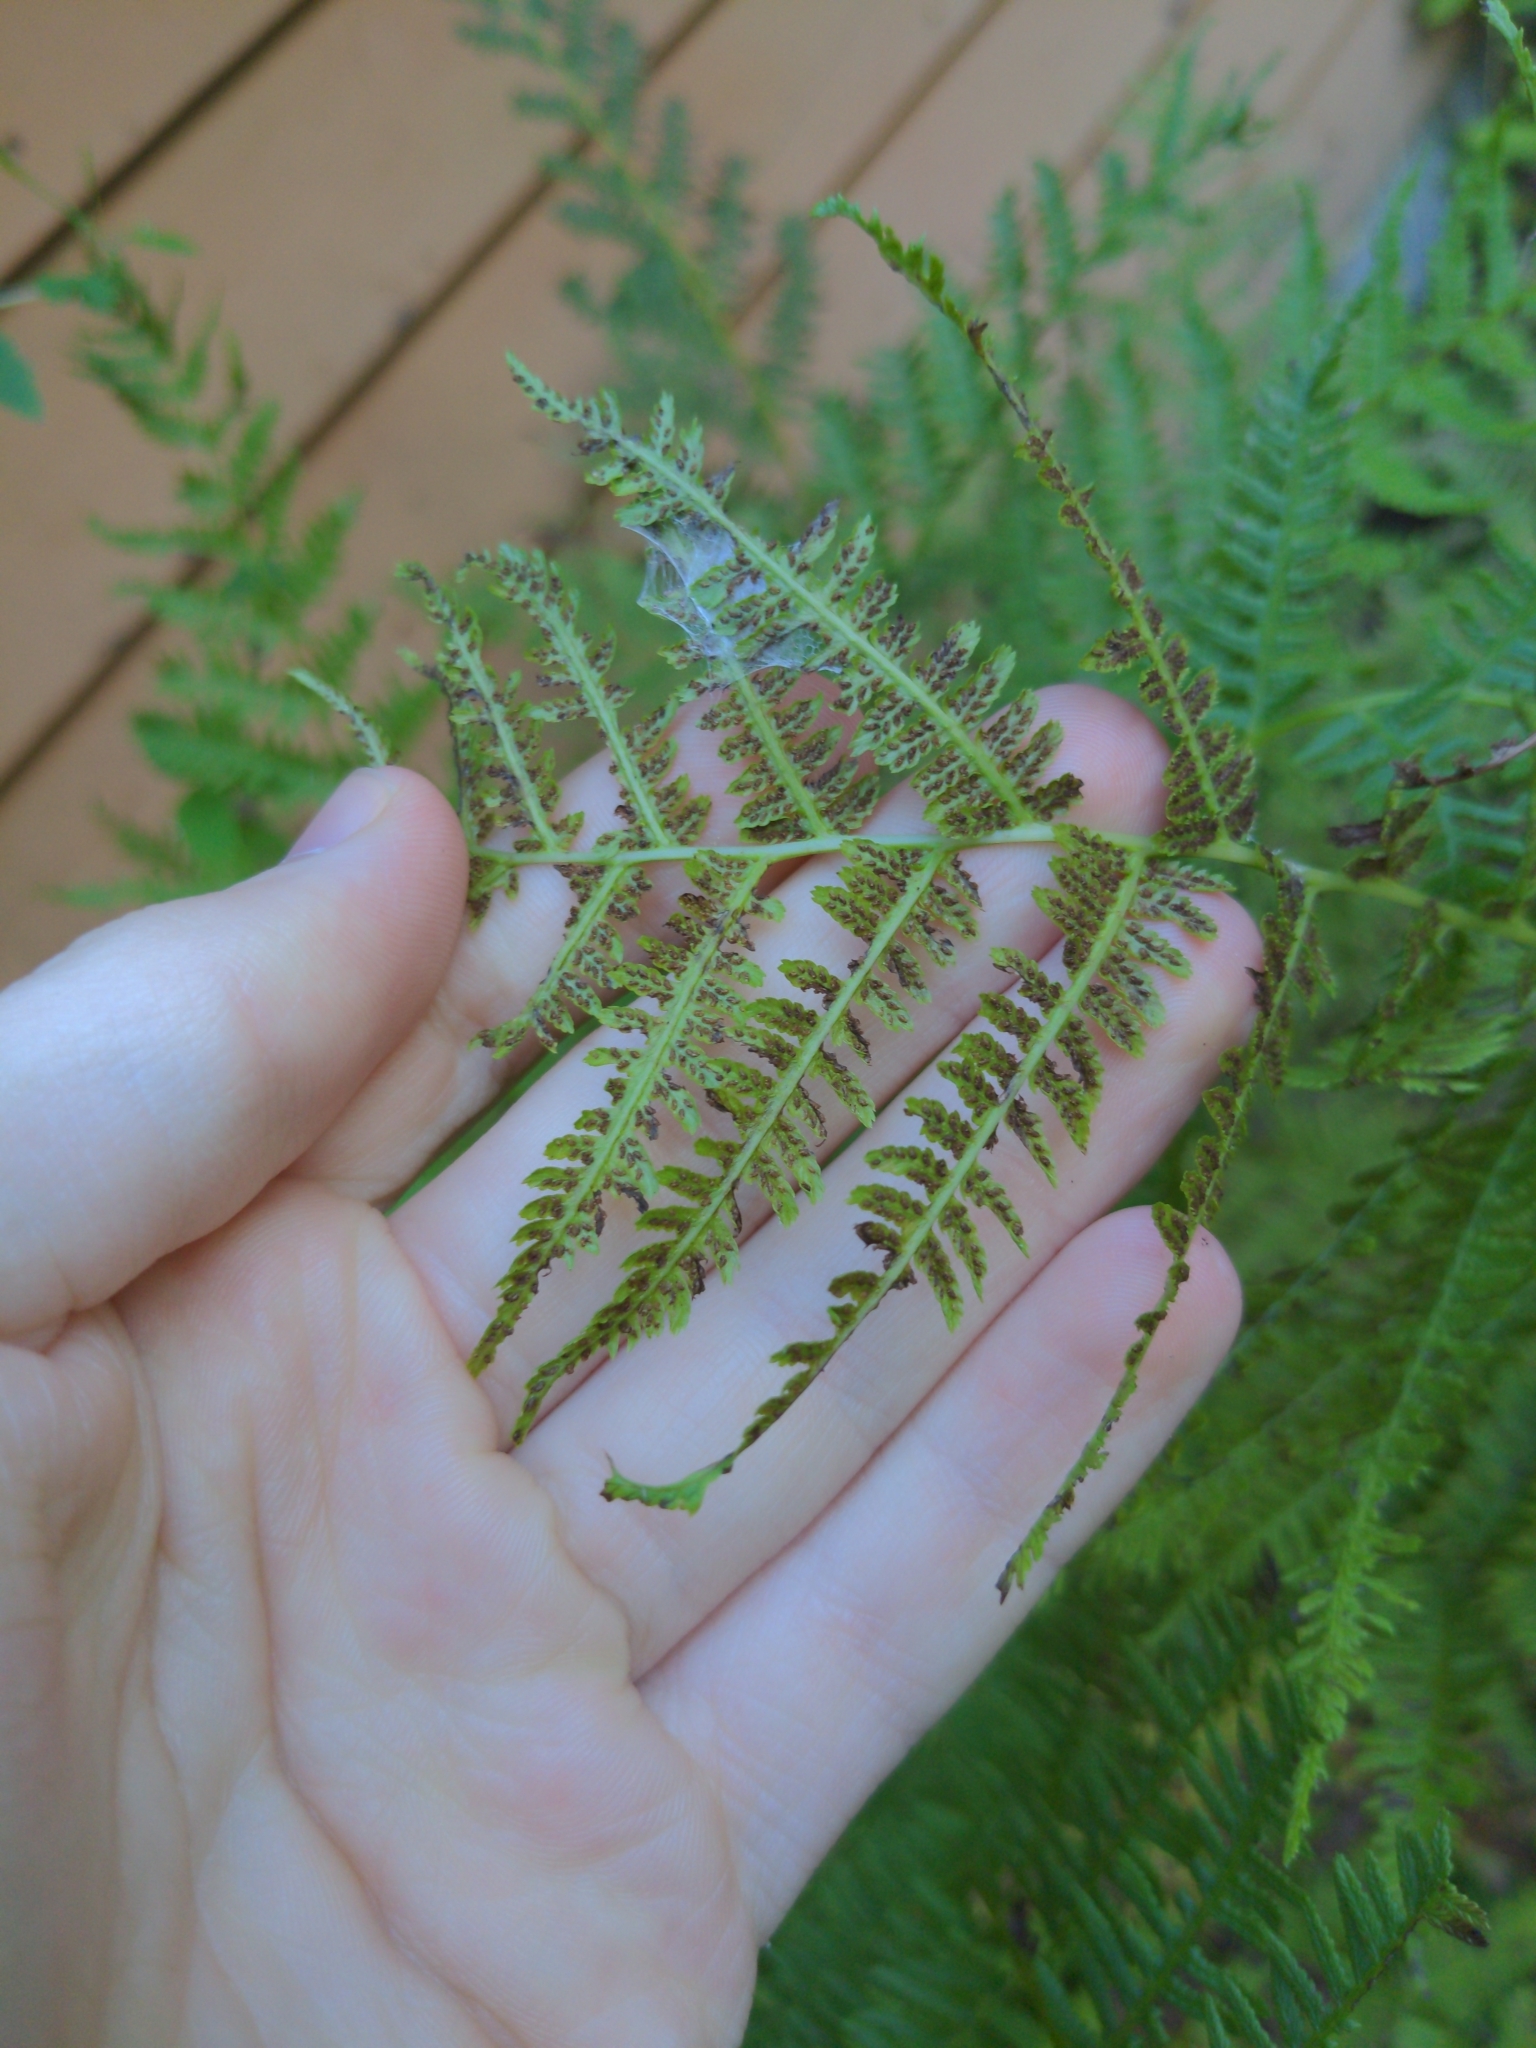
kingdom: Plantae
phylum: Tracheophyta
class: Polypodiopsida
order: Polypodiales
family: Athyriaceae
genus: Athyrium
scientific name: Athyrium angustum
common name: Northern lady fern
